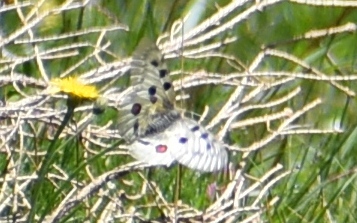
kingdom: Animalia
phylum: Arthropoda
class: Insecta
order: Lepidoptera
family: Papilionidae
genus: Parnassius
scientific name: Parnassius apollo
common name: Apollo
